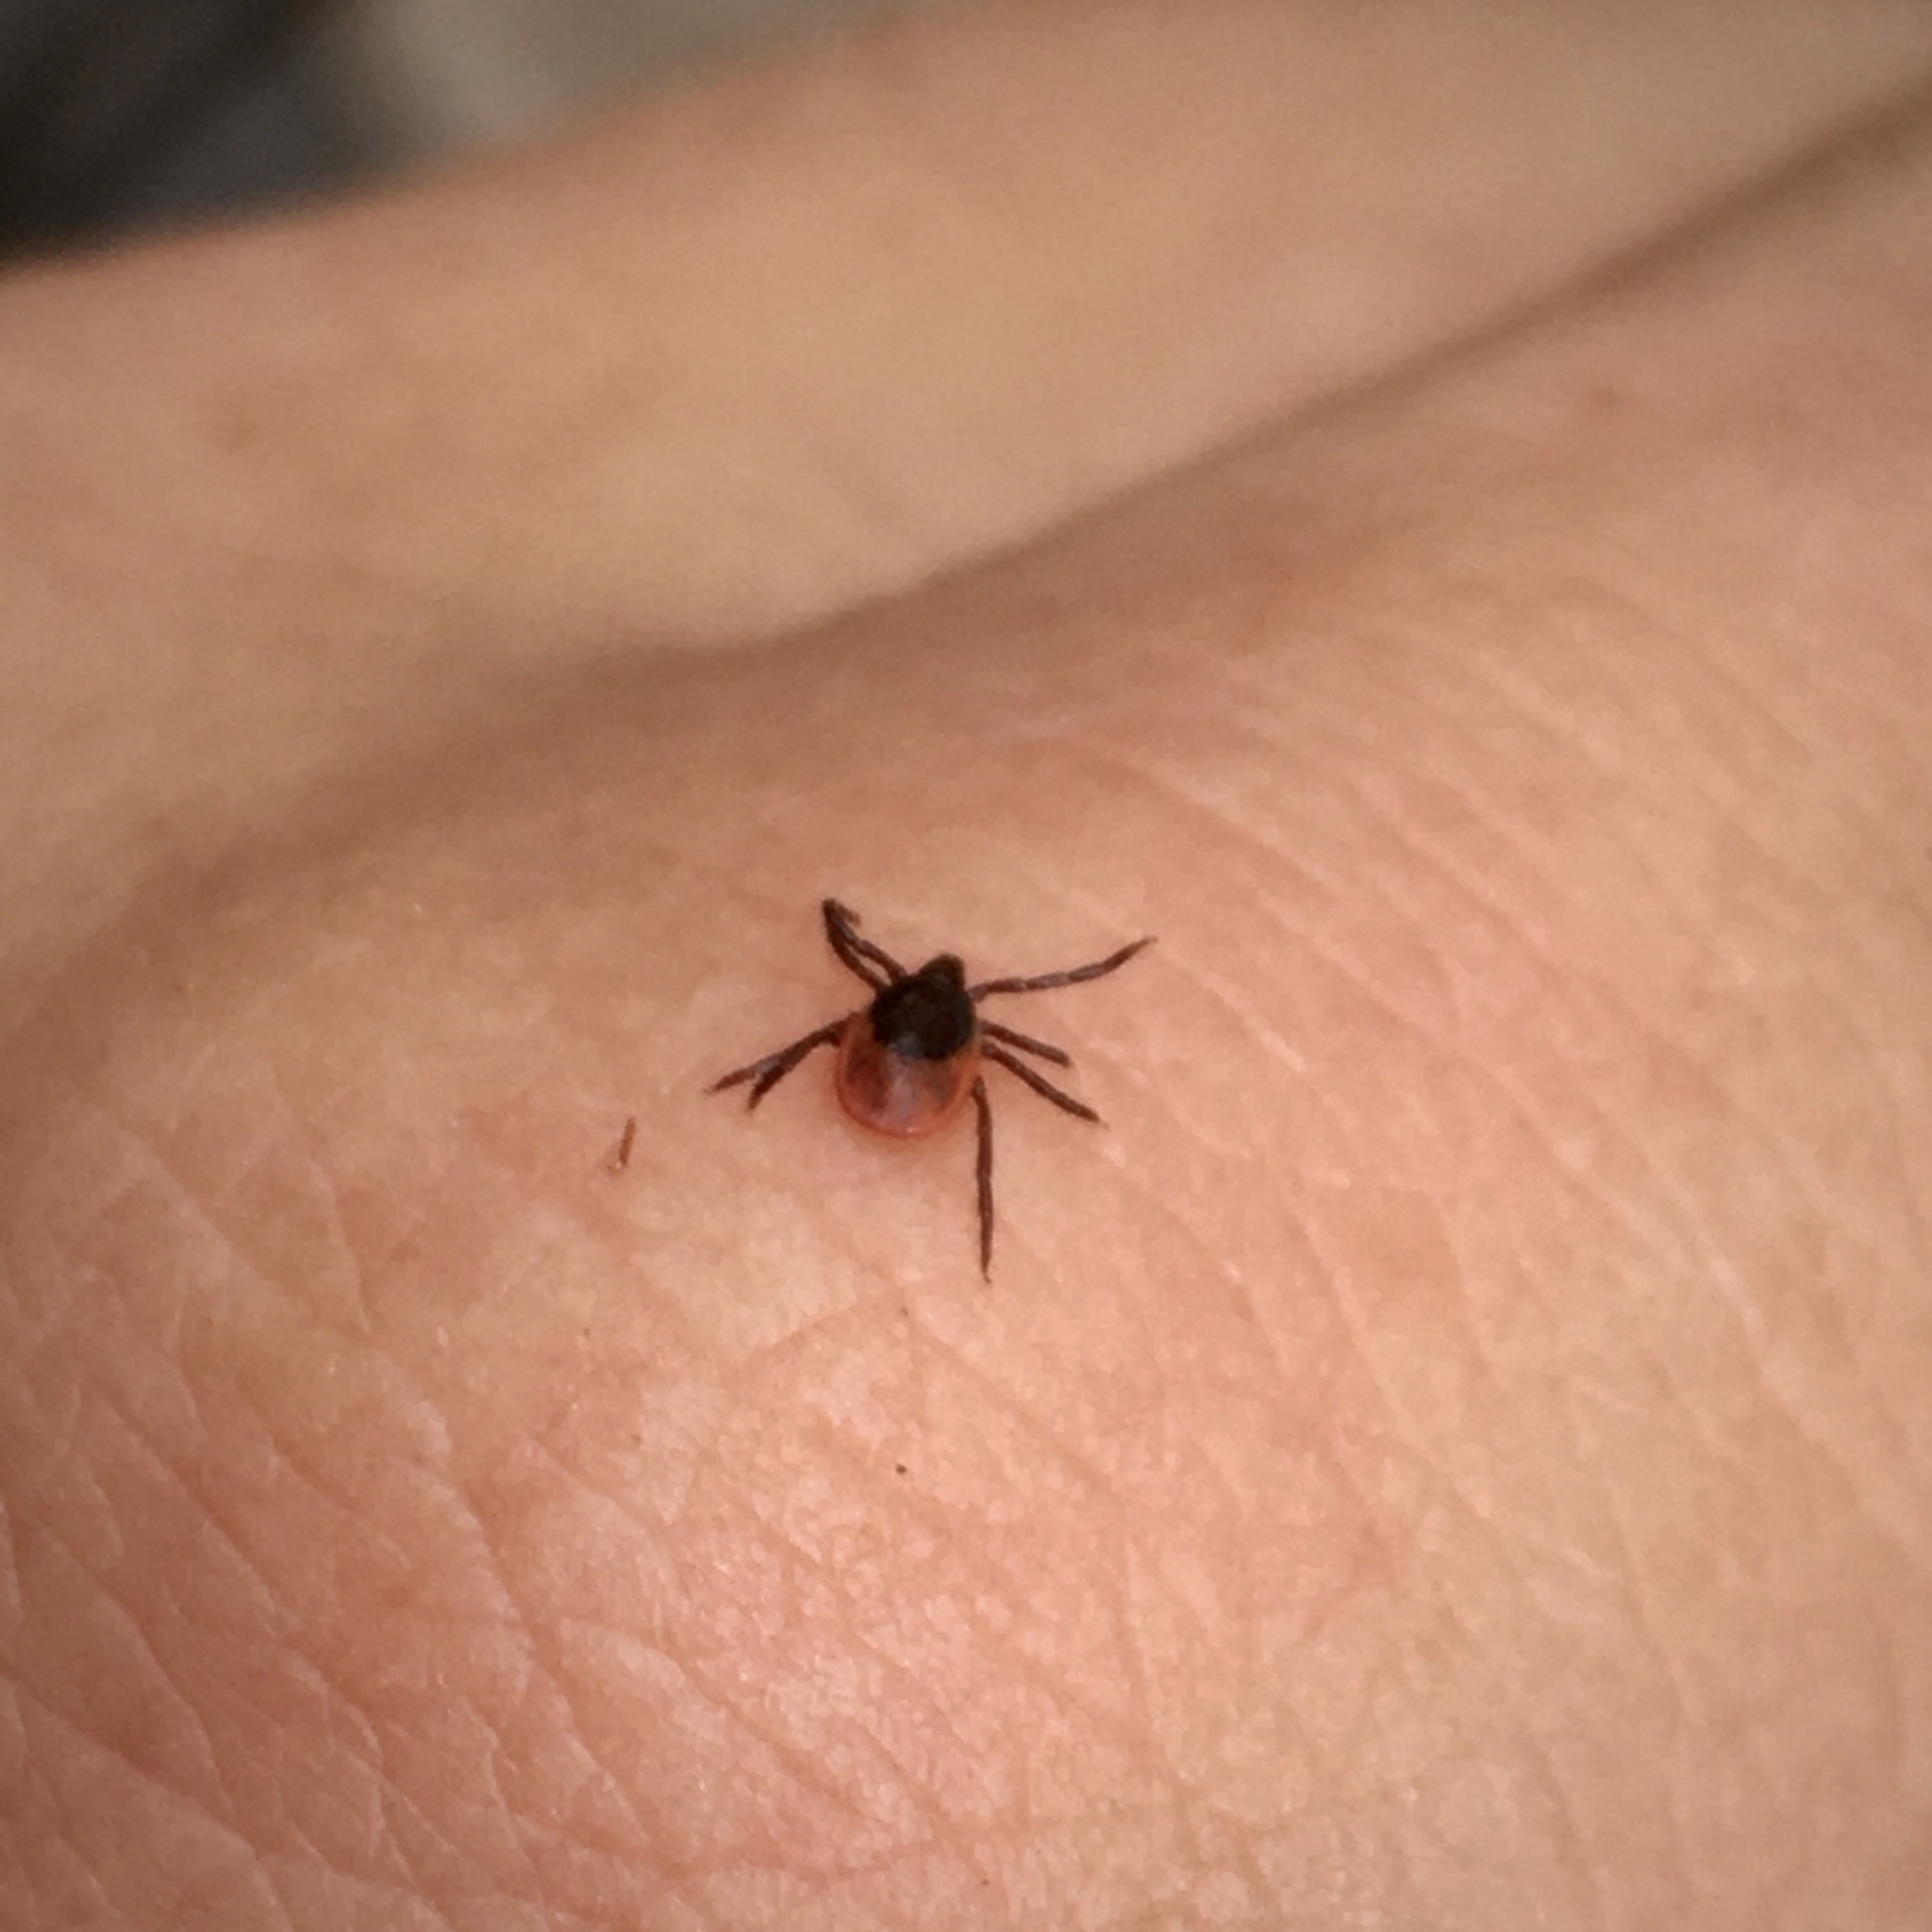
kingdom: Animalia
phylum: Arthropoda
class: Arachnida
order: Ixodida
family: Ixodidae
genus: Ixodes
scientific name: Ixodes ricinus
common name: Castor bean tick
